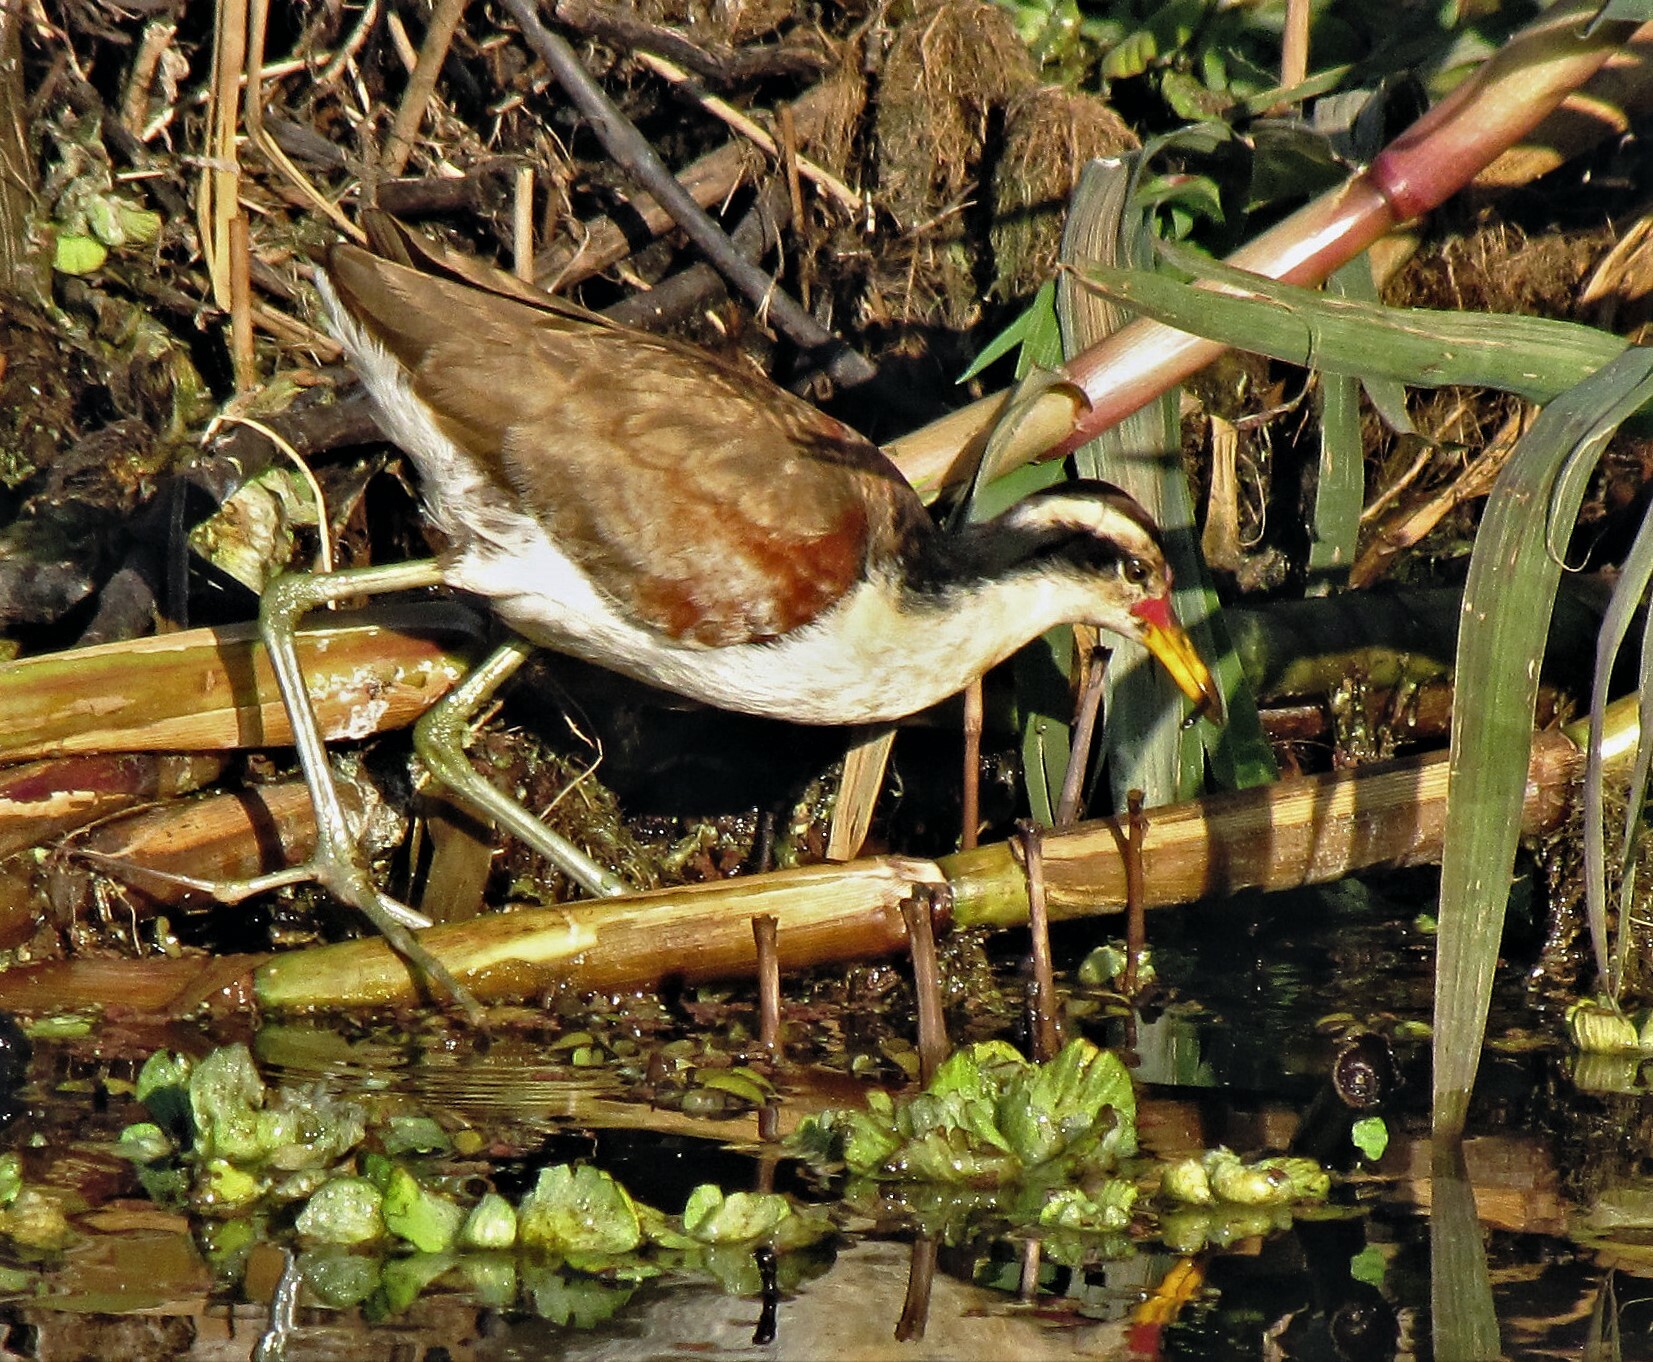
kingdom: Animalia
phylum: Chordata
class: Aves
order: Charadriiformes
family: Jacanidae
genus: Jacana
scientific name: Jacana jacana
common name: Wattled jacana
